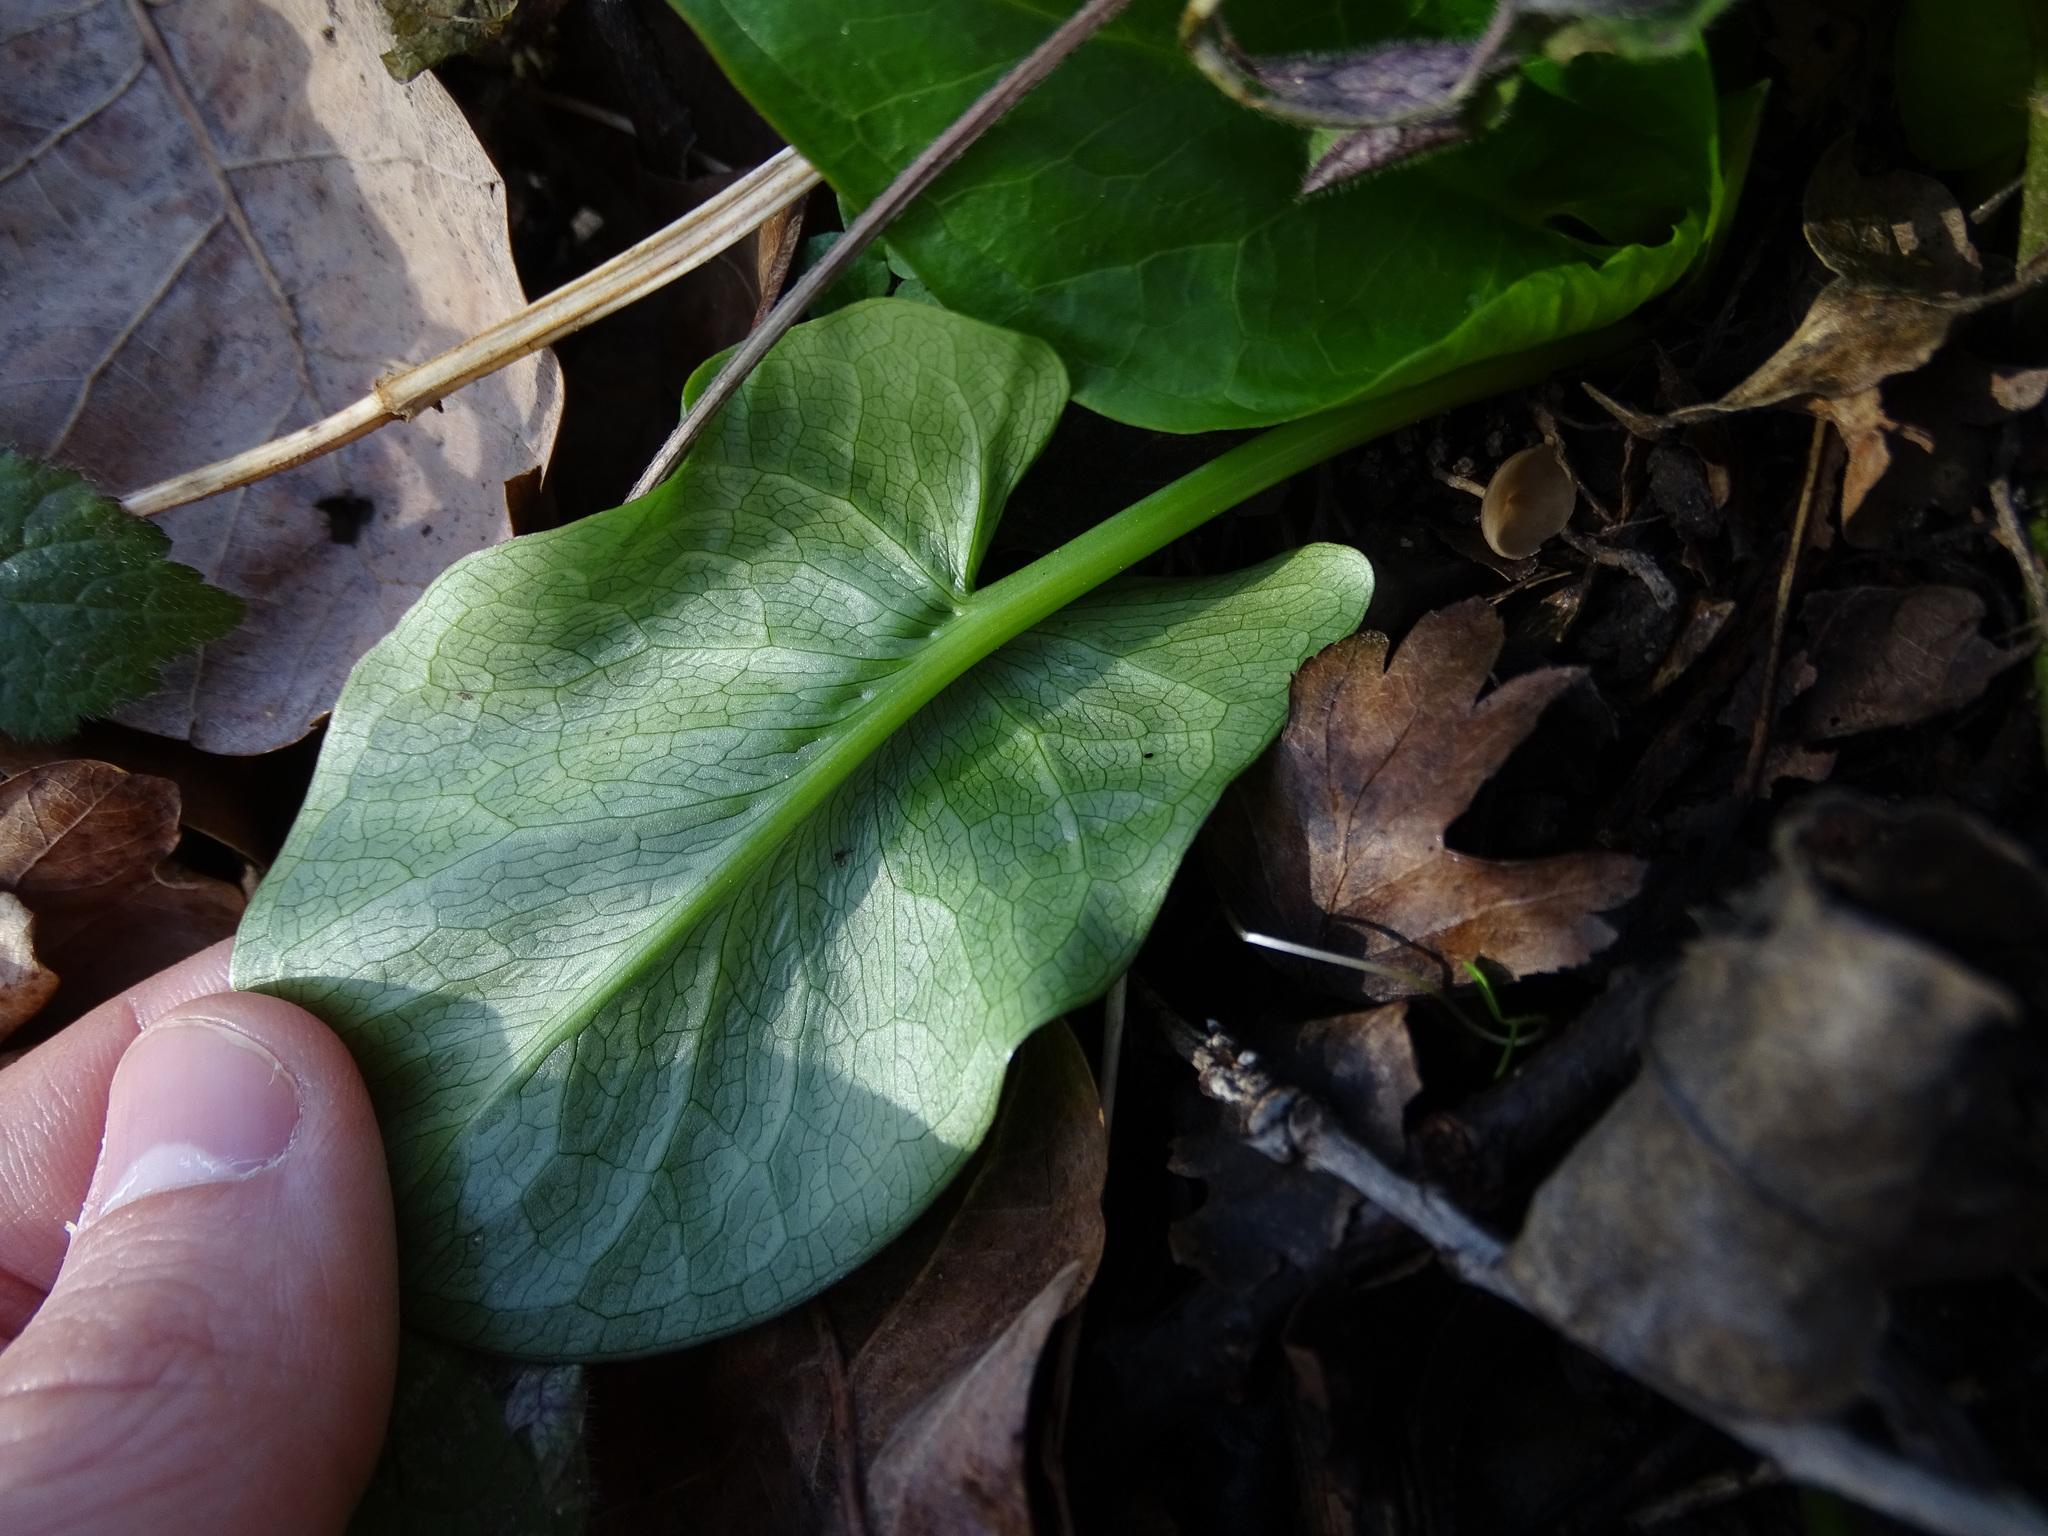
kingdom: Plantae
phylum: Tracheophyta
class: Liliopsida
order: Alismatales
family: Araceae
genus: Arum
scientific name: Arum cylindraceum
